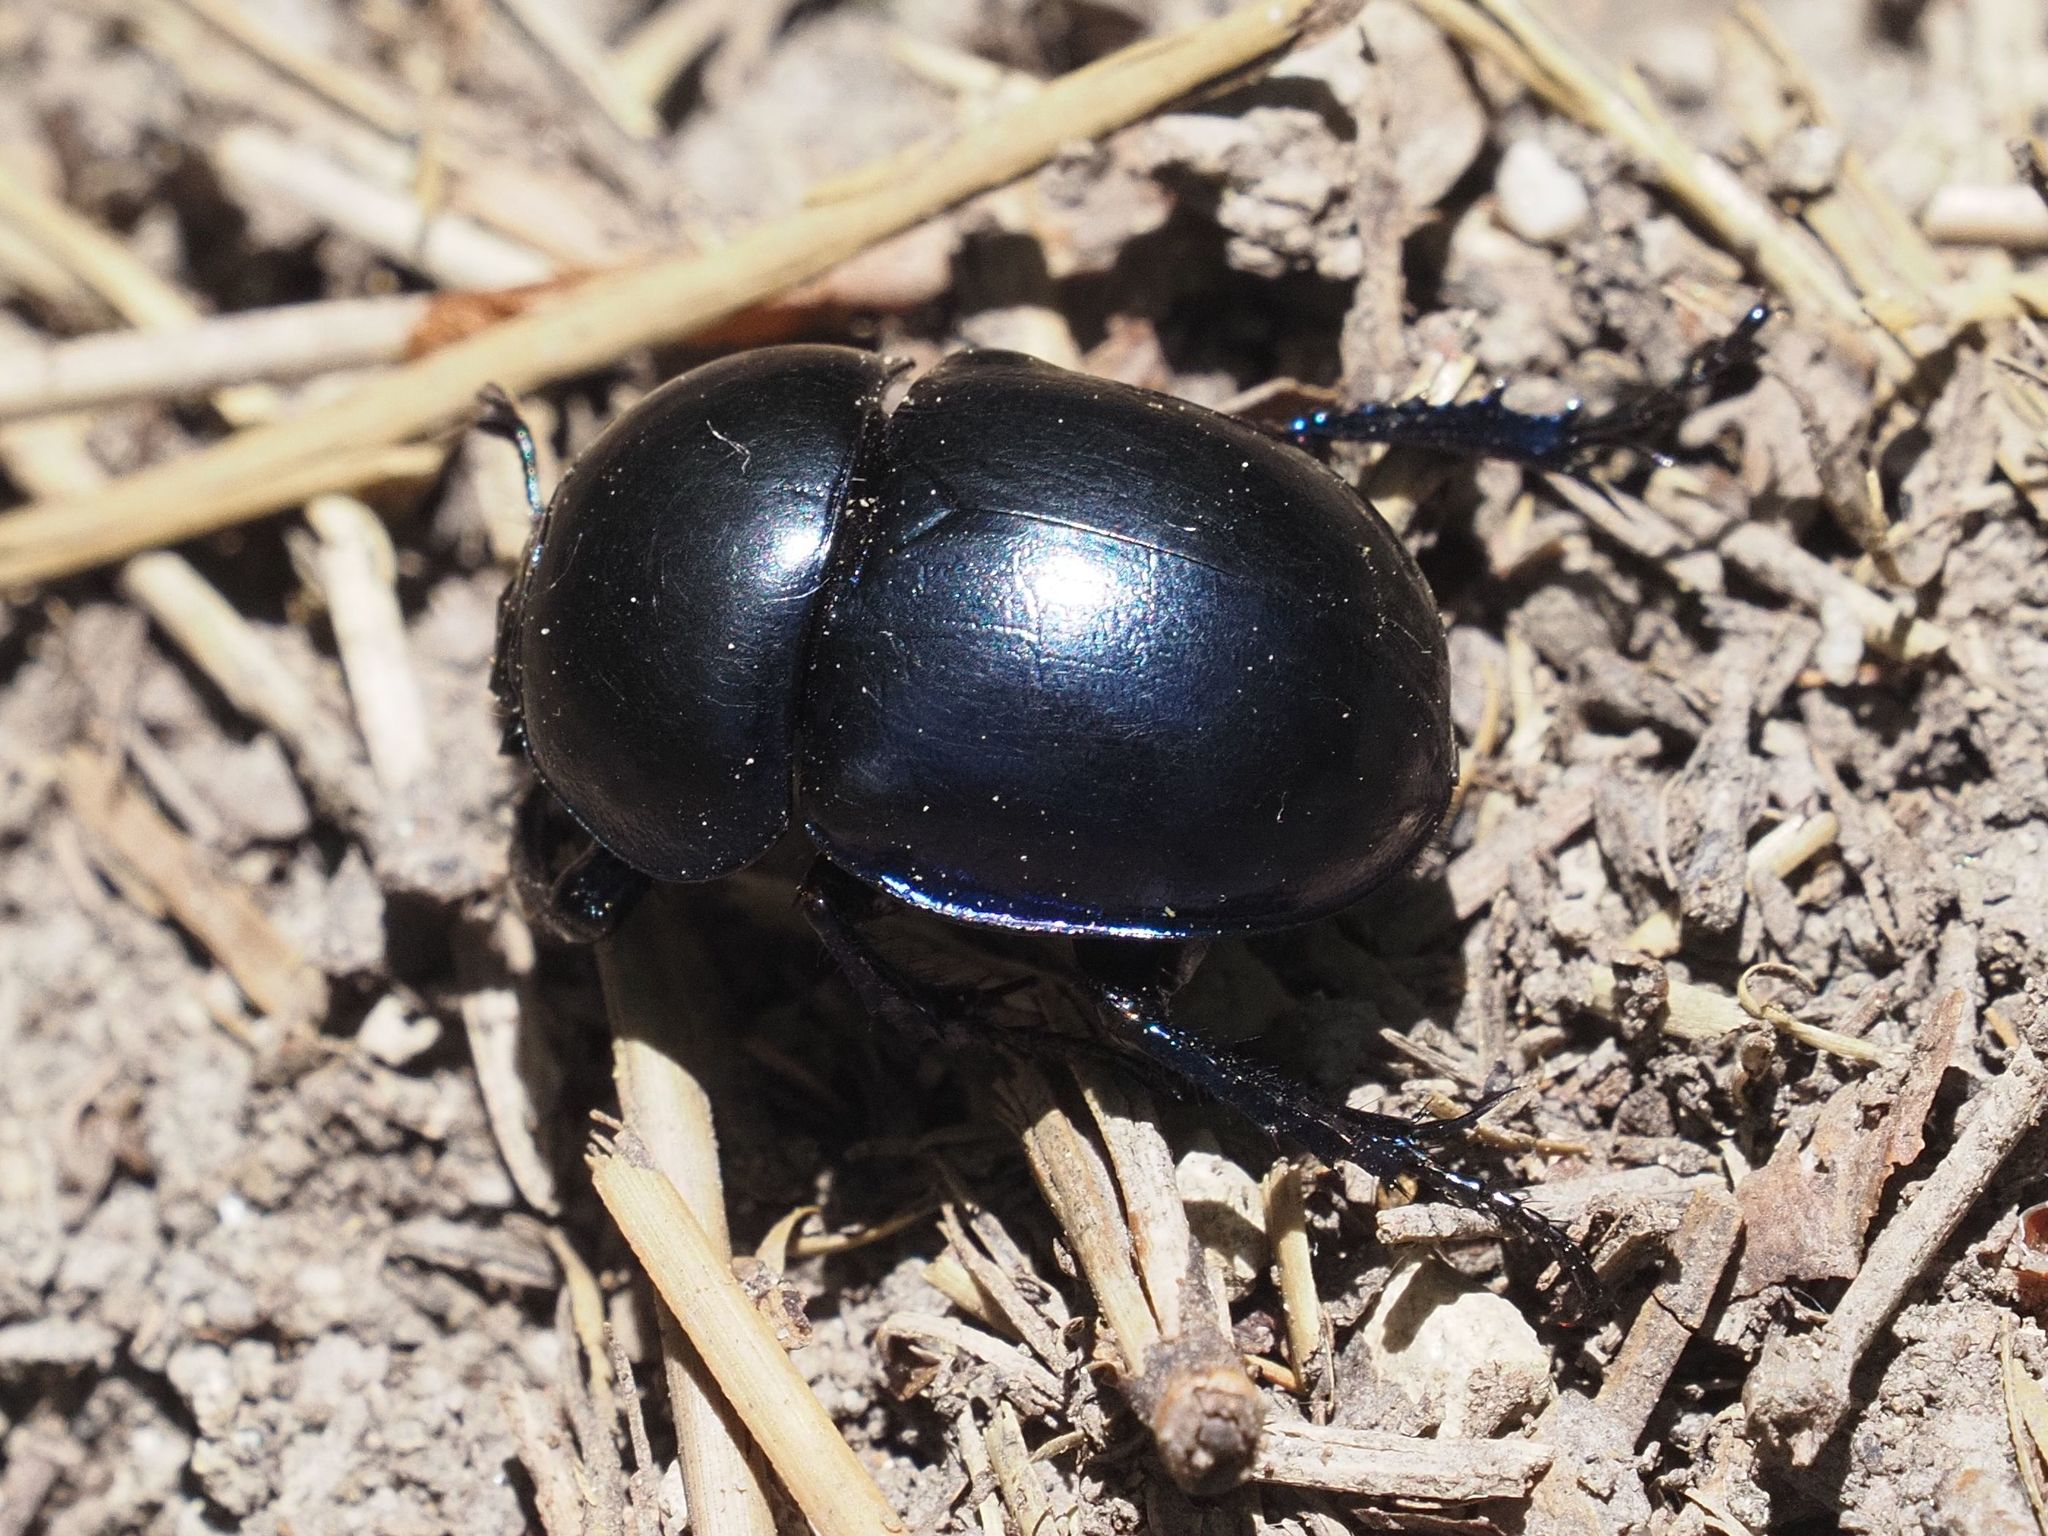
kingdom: Animalia
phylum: Arthropoda
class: Insecta
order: Coleoptera
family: Geotrupidae
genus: Trypocopris
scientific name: Trypocopris vernalis
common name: Spring dumbledor
